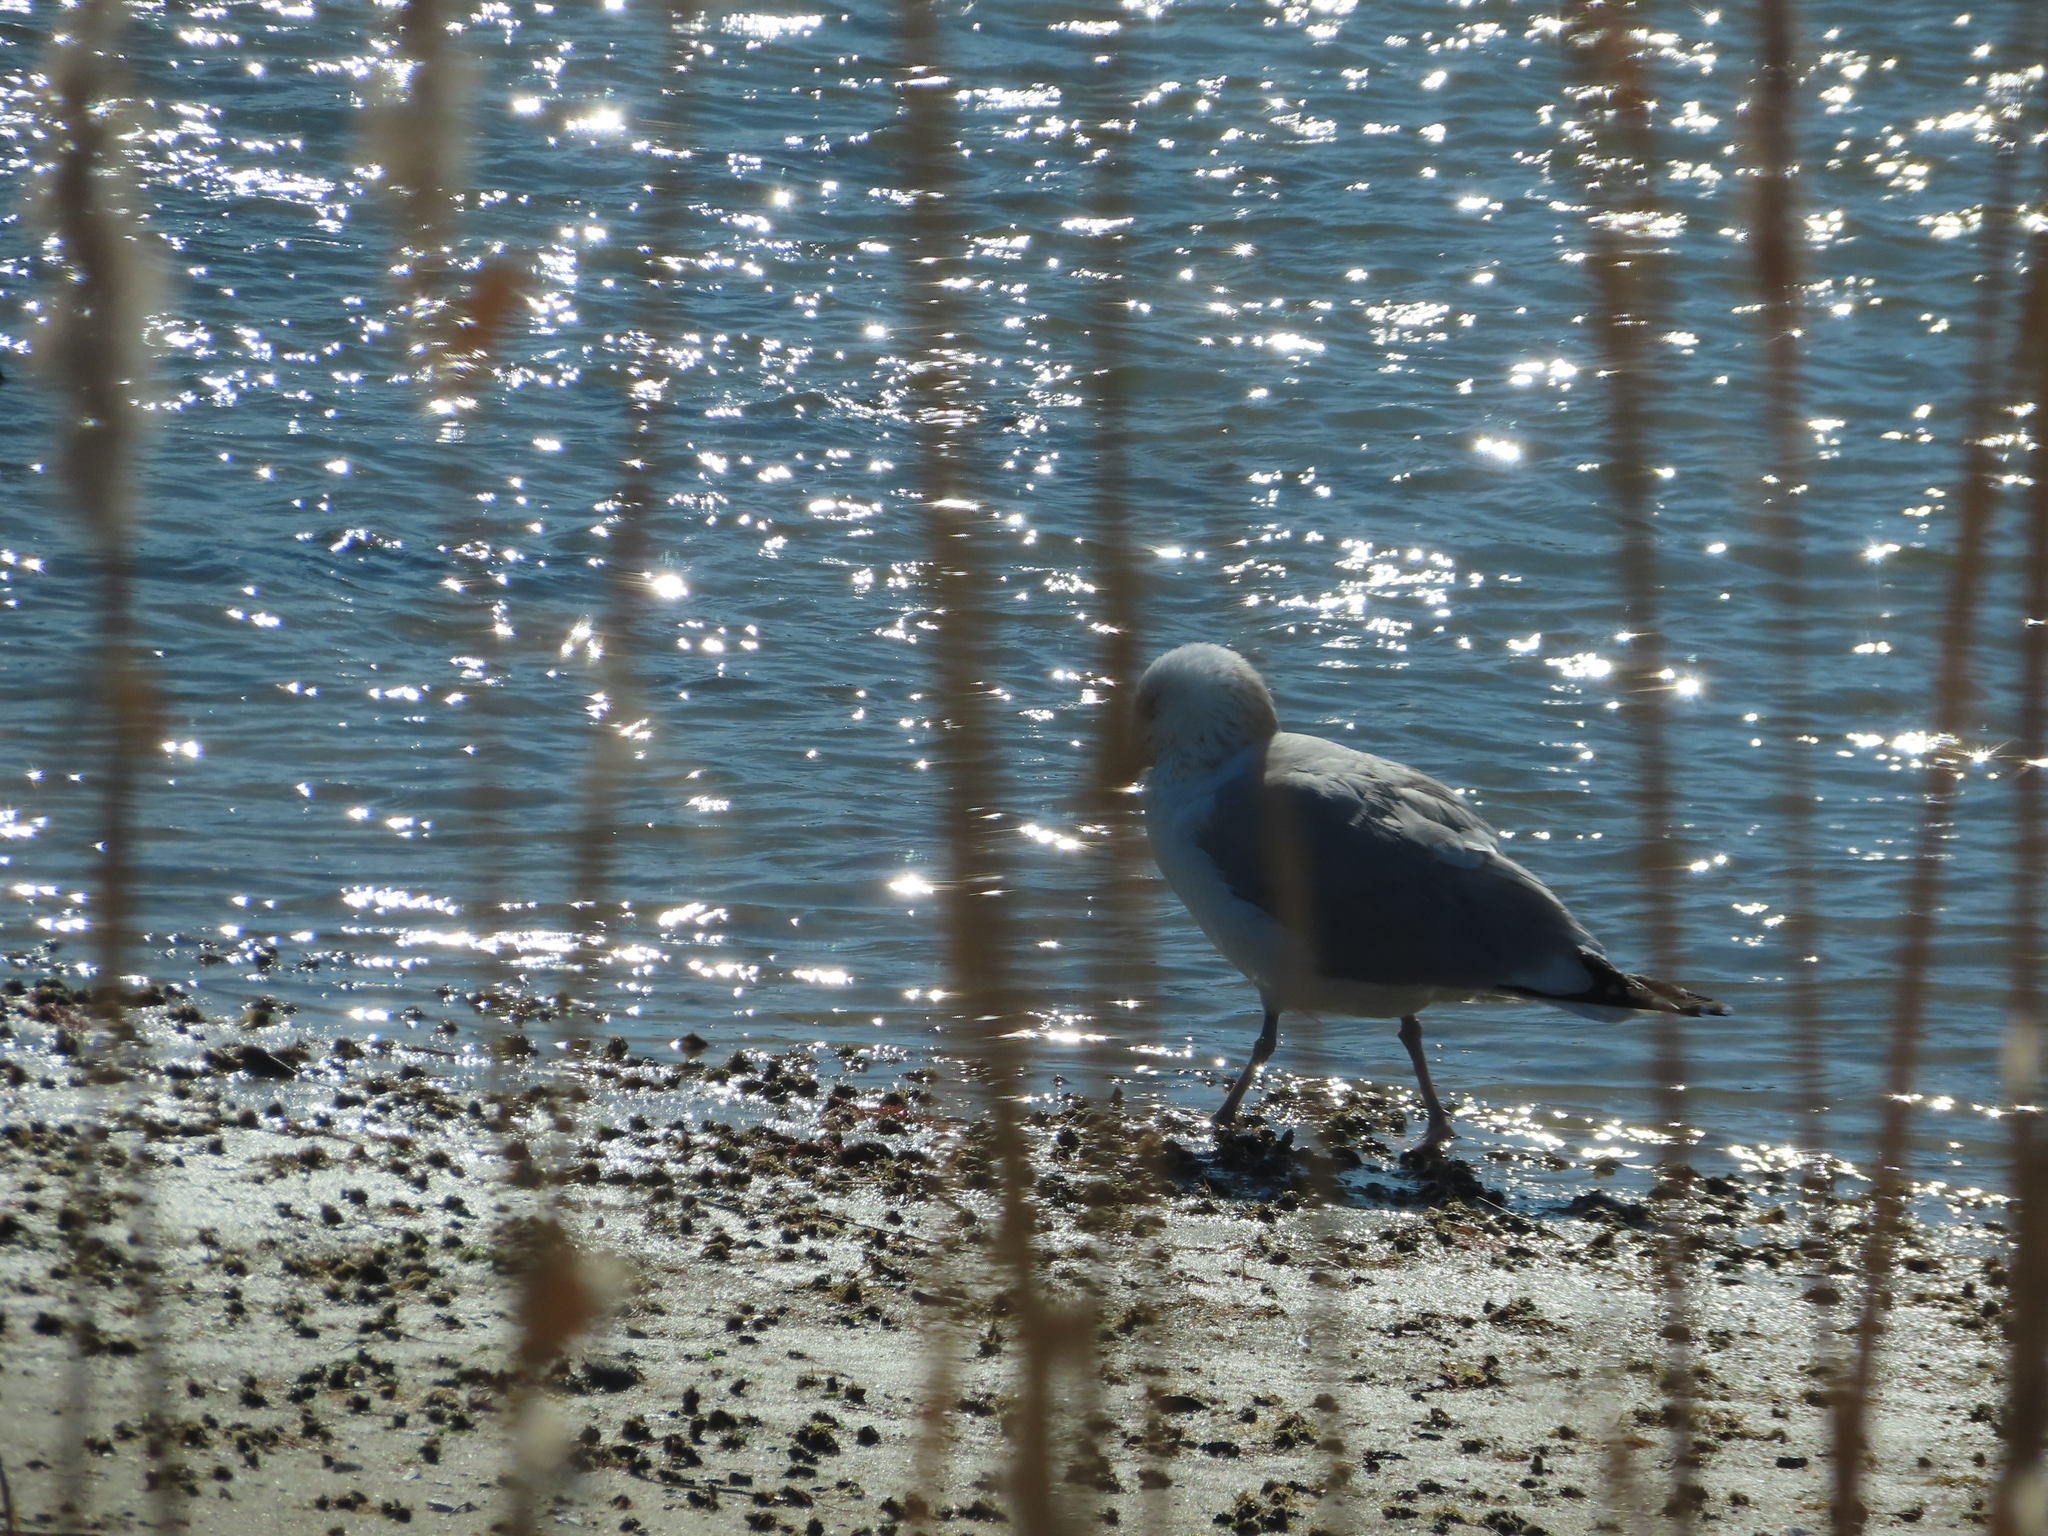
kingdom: Animalia
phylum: Chordata
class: Aves
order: Charadriiformes
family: Laridae
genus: Larus
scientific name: Larus argentatus
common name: Herring gull
